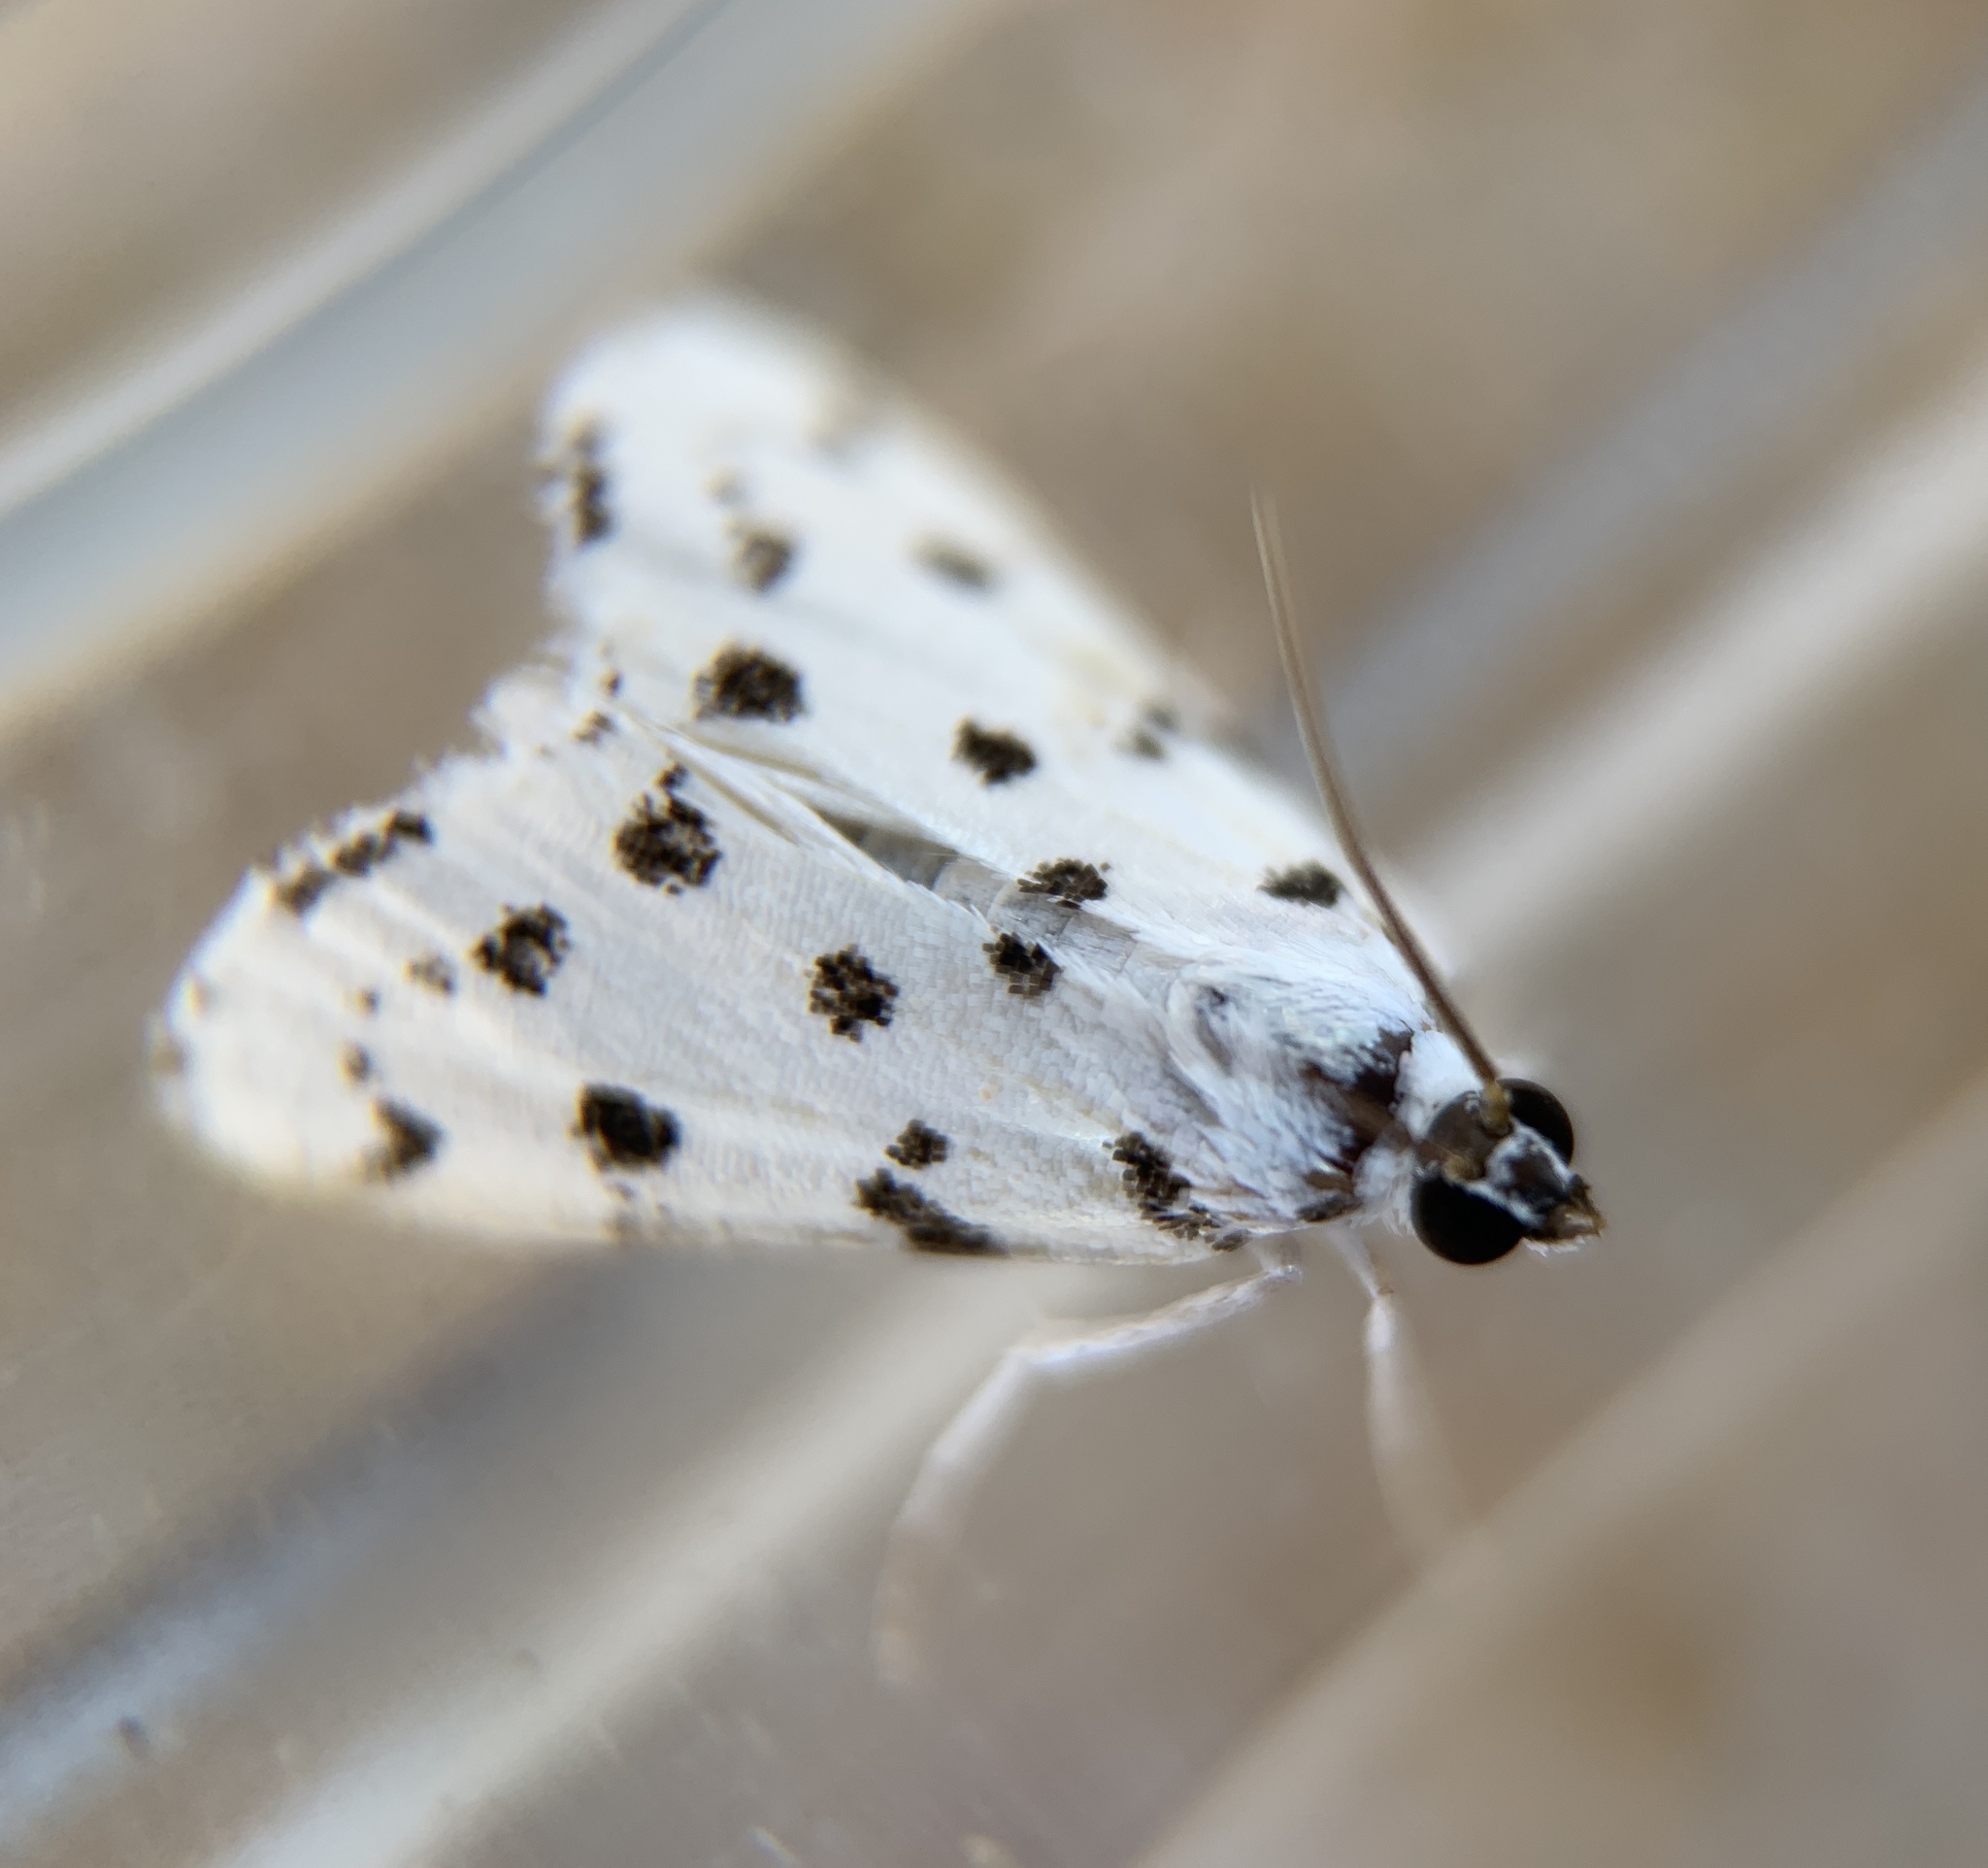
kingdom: Animalia
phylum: Arthropoda
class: Insecta
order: Lepidoptera
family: Crambidae
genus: Eustixia
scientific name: Eustixia pupula
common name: American cabbage pearl
